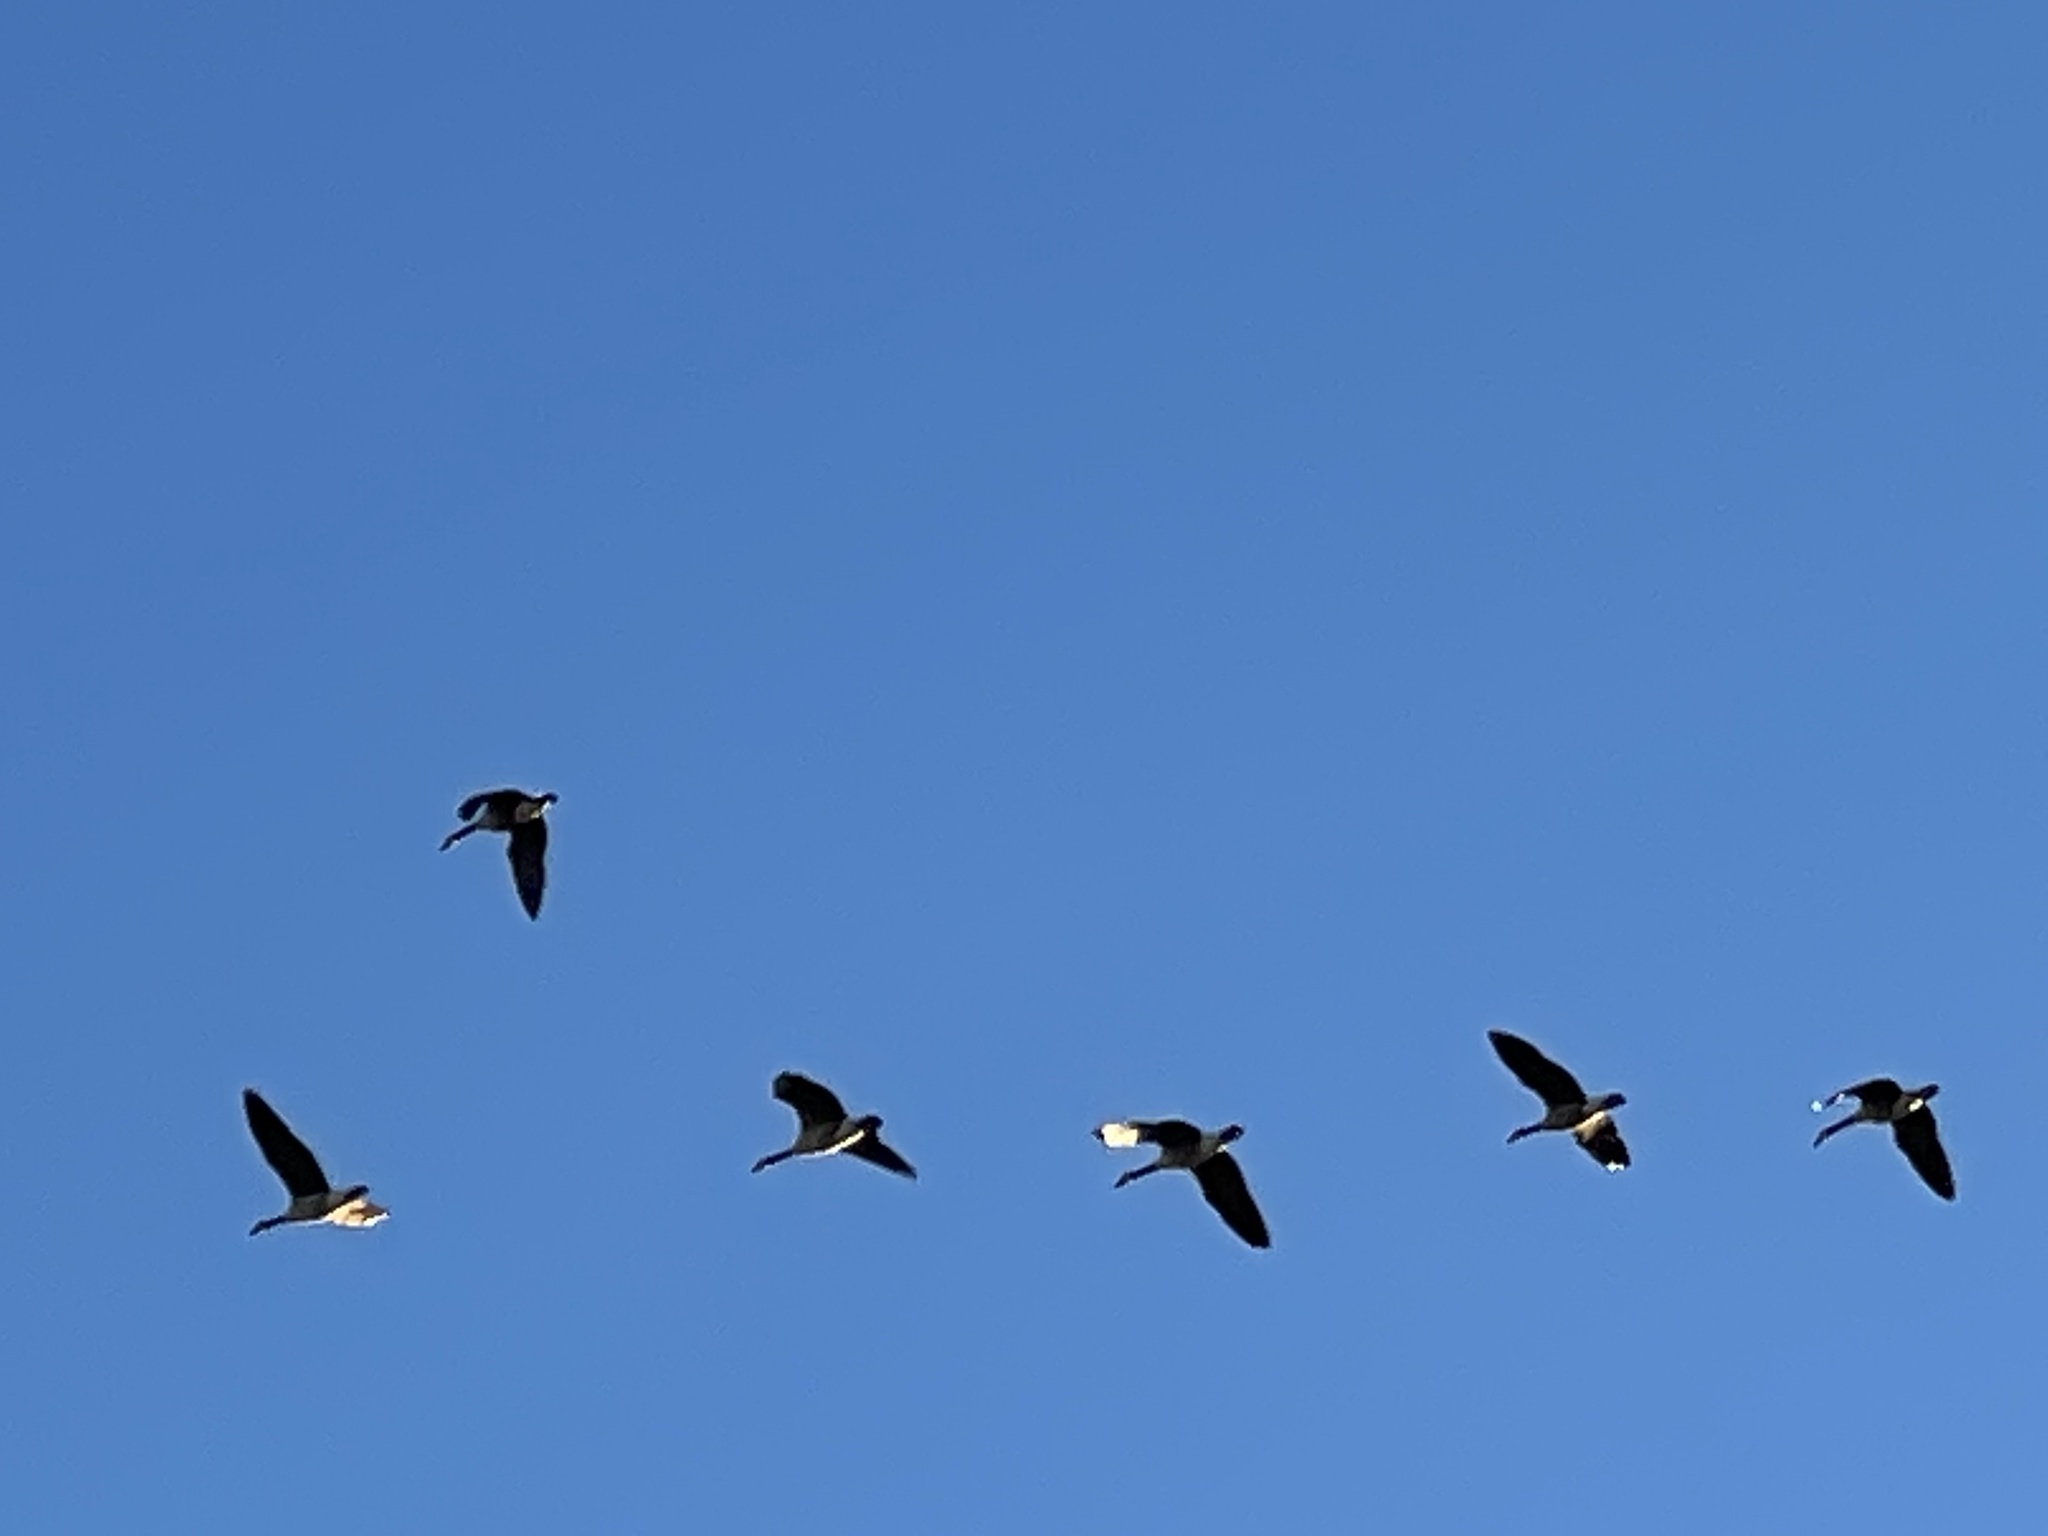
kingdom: Animalia
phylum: Chordata
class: Aves
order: Anseriformes
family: Anatidae
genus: Branta
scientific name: Branta canadensis
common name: Canada goose
